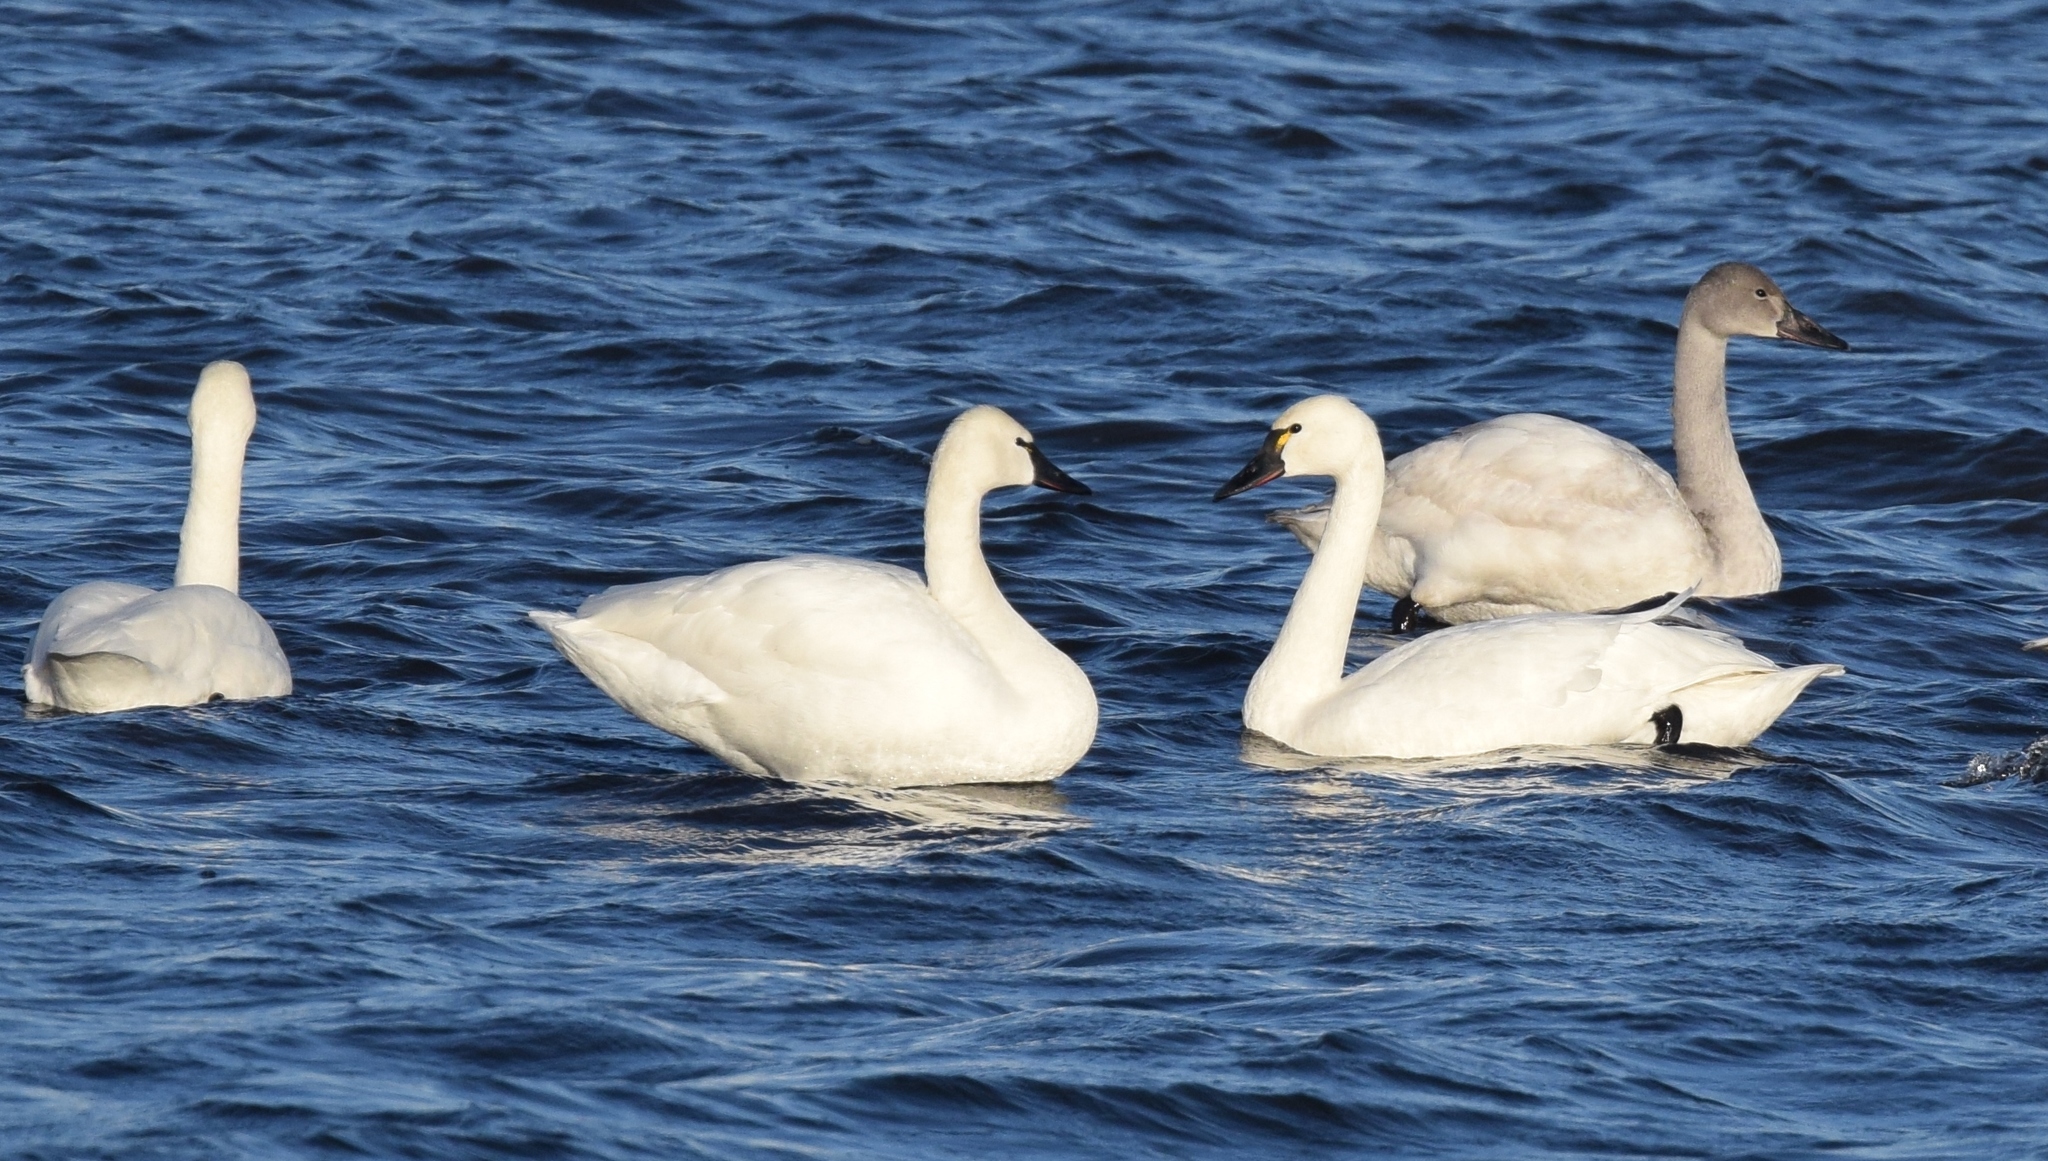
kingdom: Animalia
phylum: Chordata
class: Aves
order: Anseriformes
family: Anatidae
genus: Cygnus
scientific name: Cygnus columbianus
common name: Tundra swan
